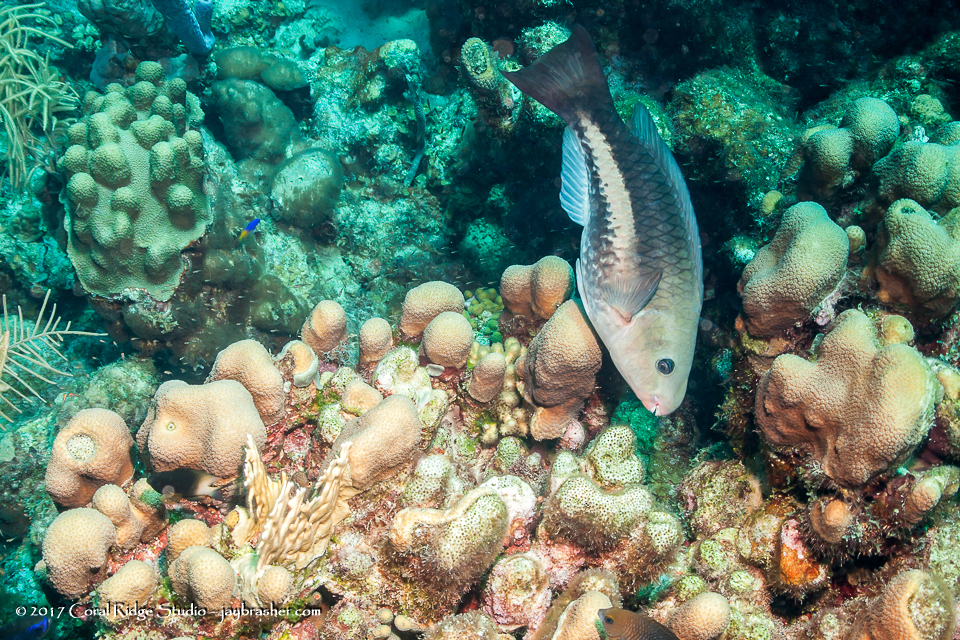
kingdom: Animalia
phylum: Chordata
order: Perciformes
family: Scaridae
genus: Scarus
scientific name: Scarus vetula
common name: Queen parrotfish
